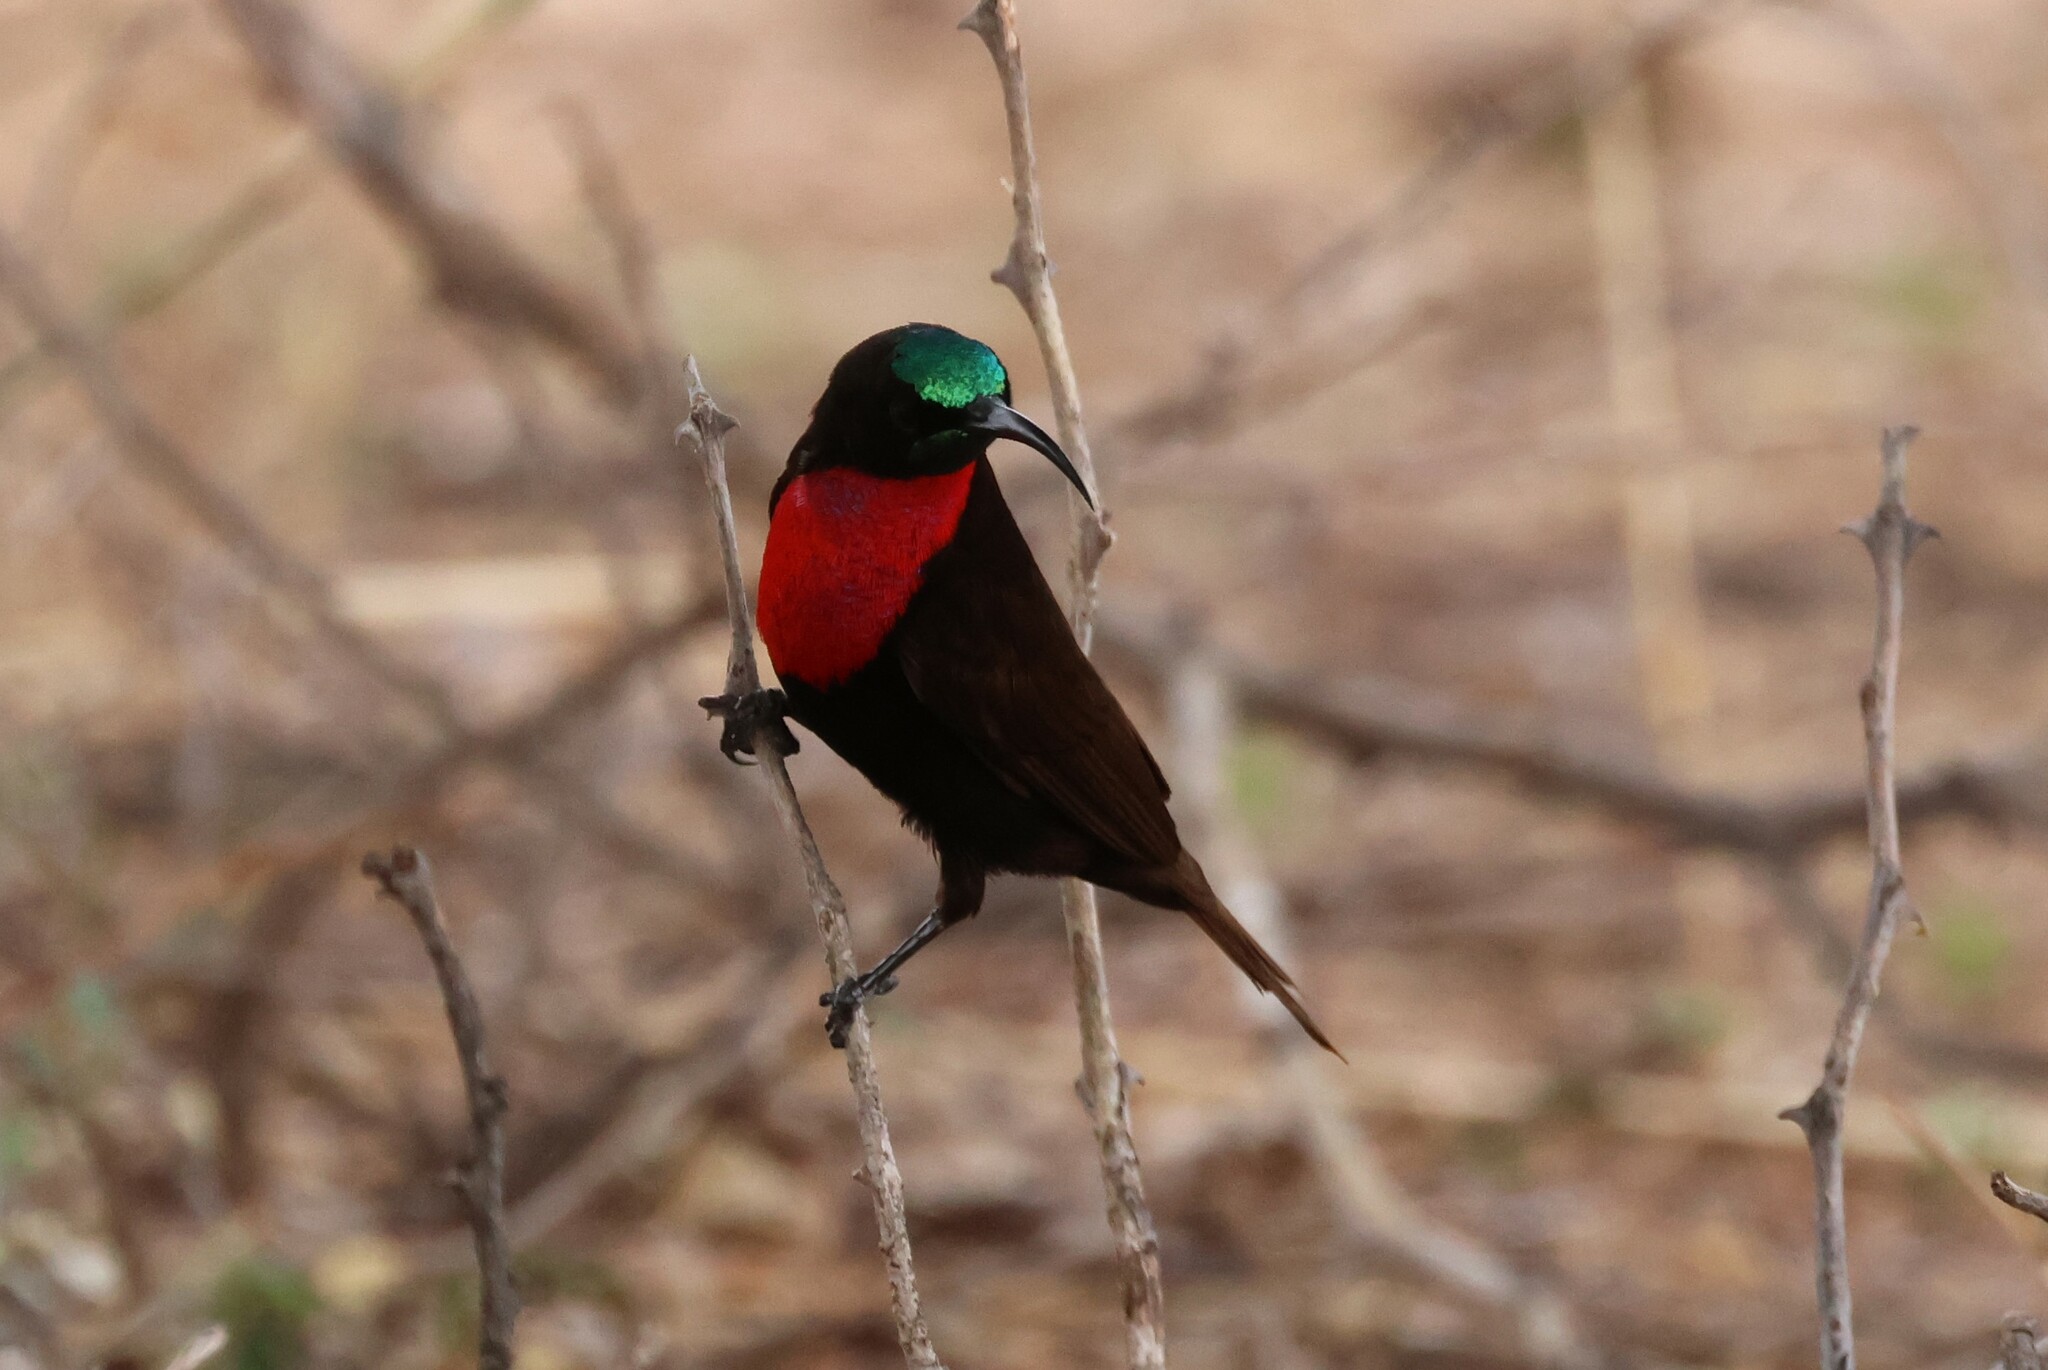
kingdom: Animalia
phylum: Chordata
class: Aves
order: Passeriformes
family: Nectariniidae
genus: Chalcomitra
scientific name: Chalcomitra senegalensis
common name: Scarlet-chested sunbird
